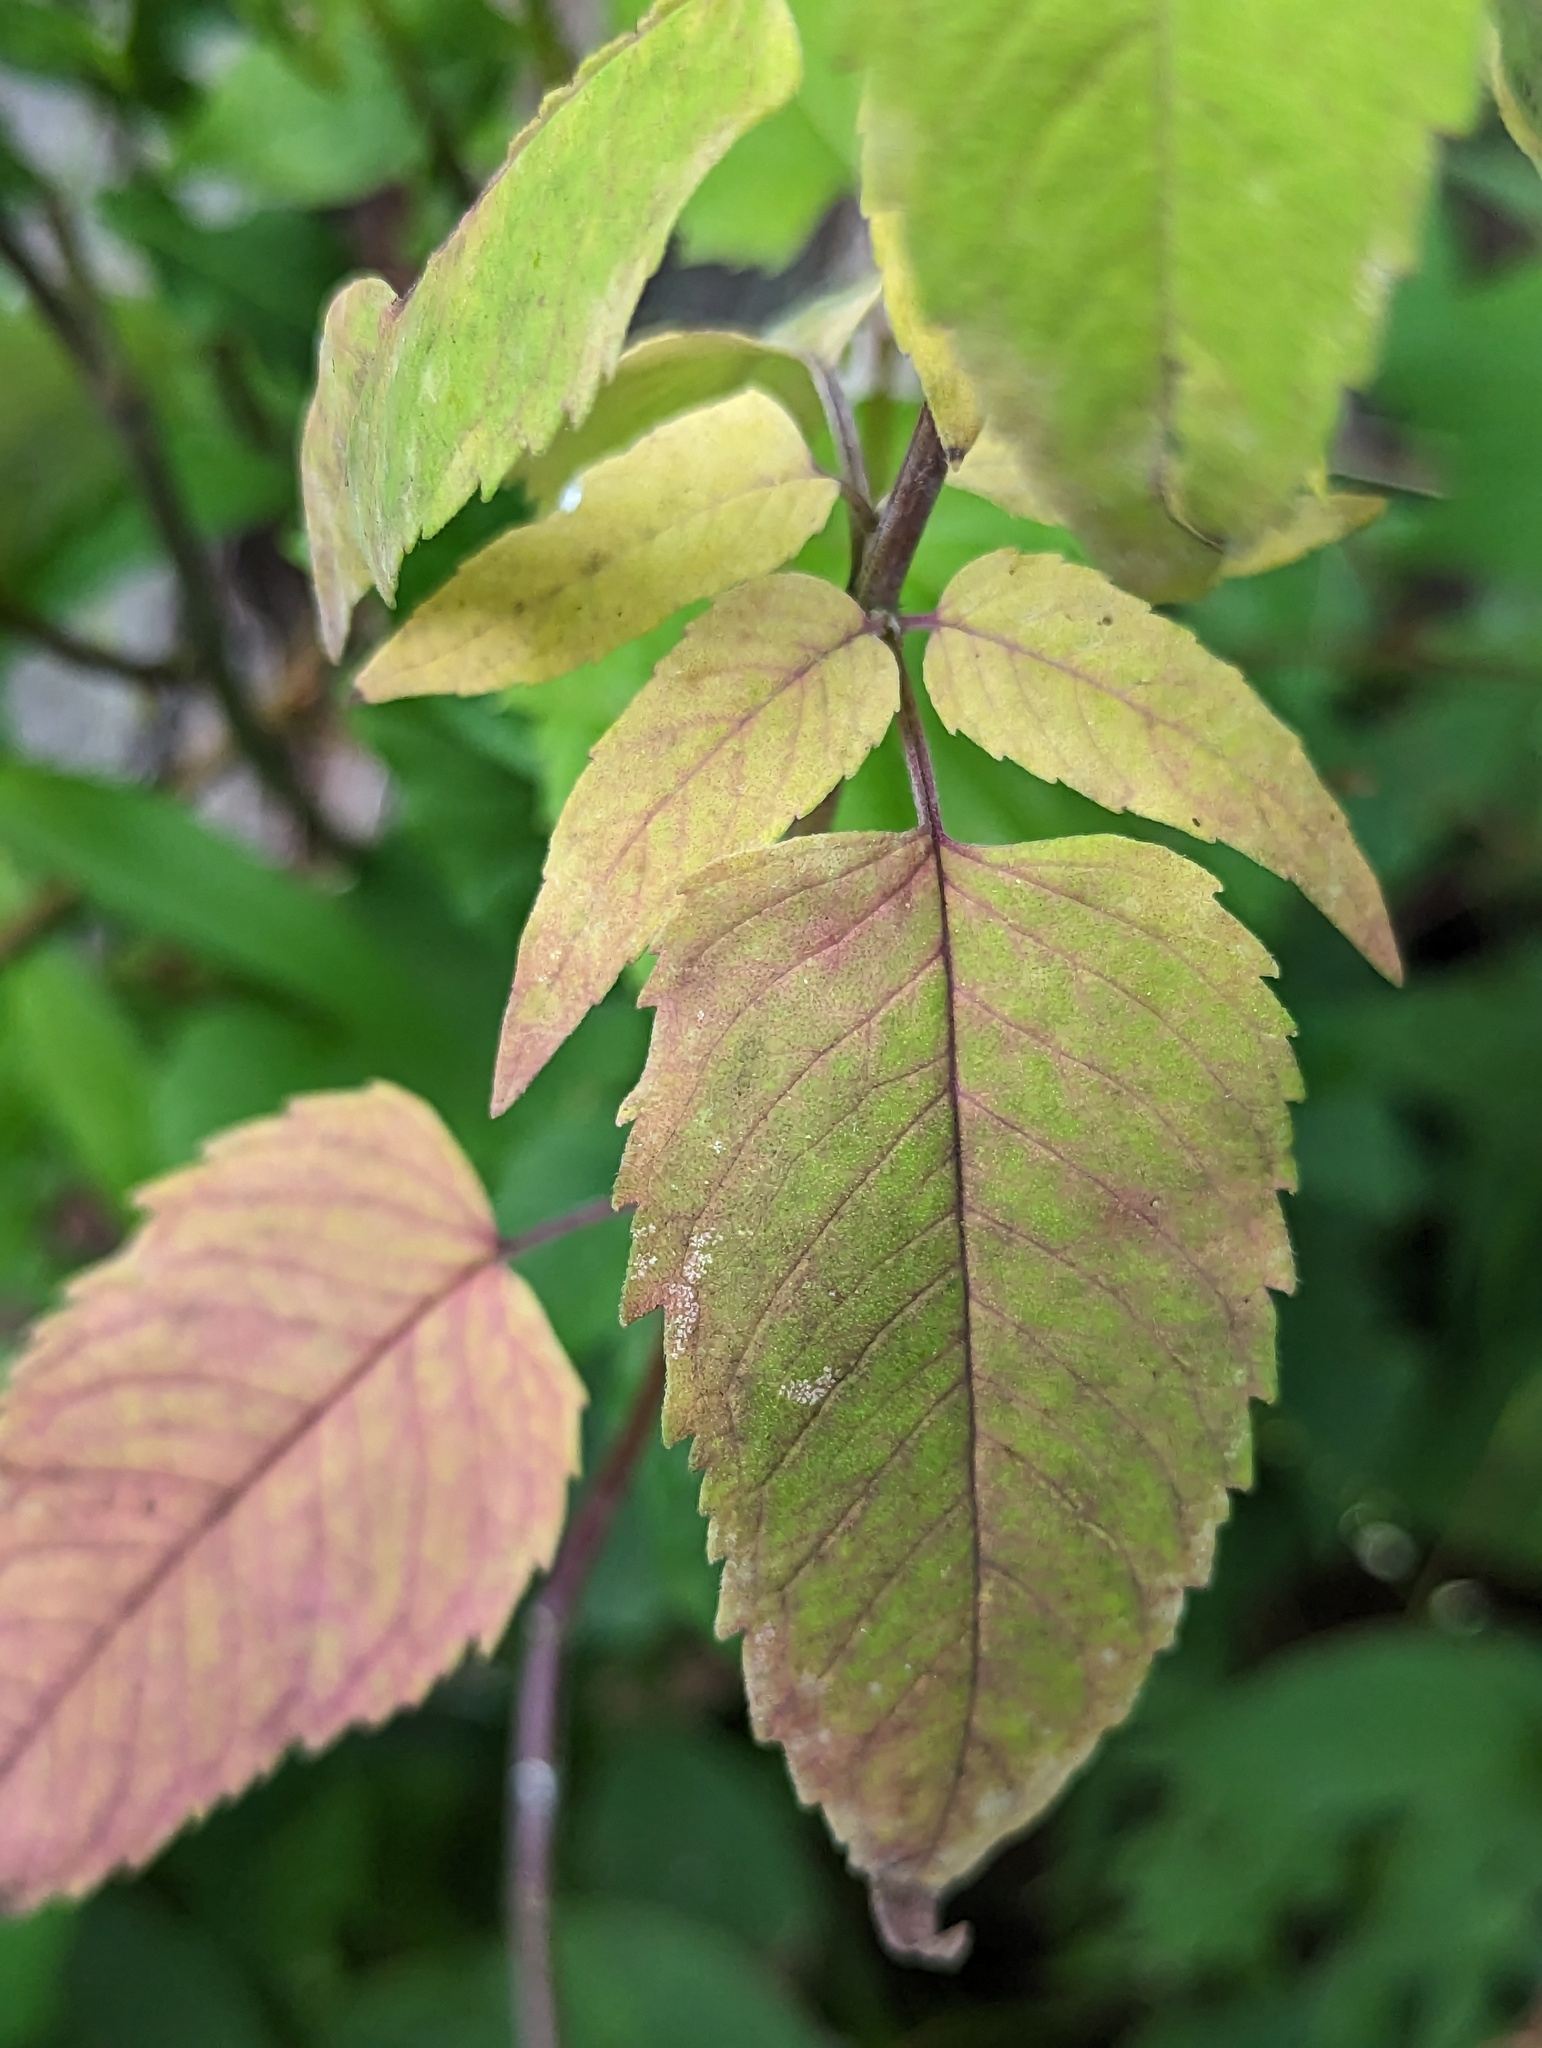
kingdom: Plantae
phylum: Tracheophyta
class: Magnoliopsida
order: Lamiales
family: Lamiaceae
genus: Monarda
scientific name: Monarda fistulosa
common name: Purple beebalm
